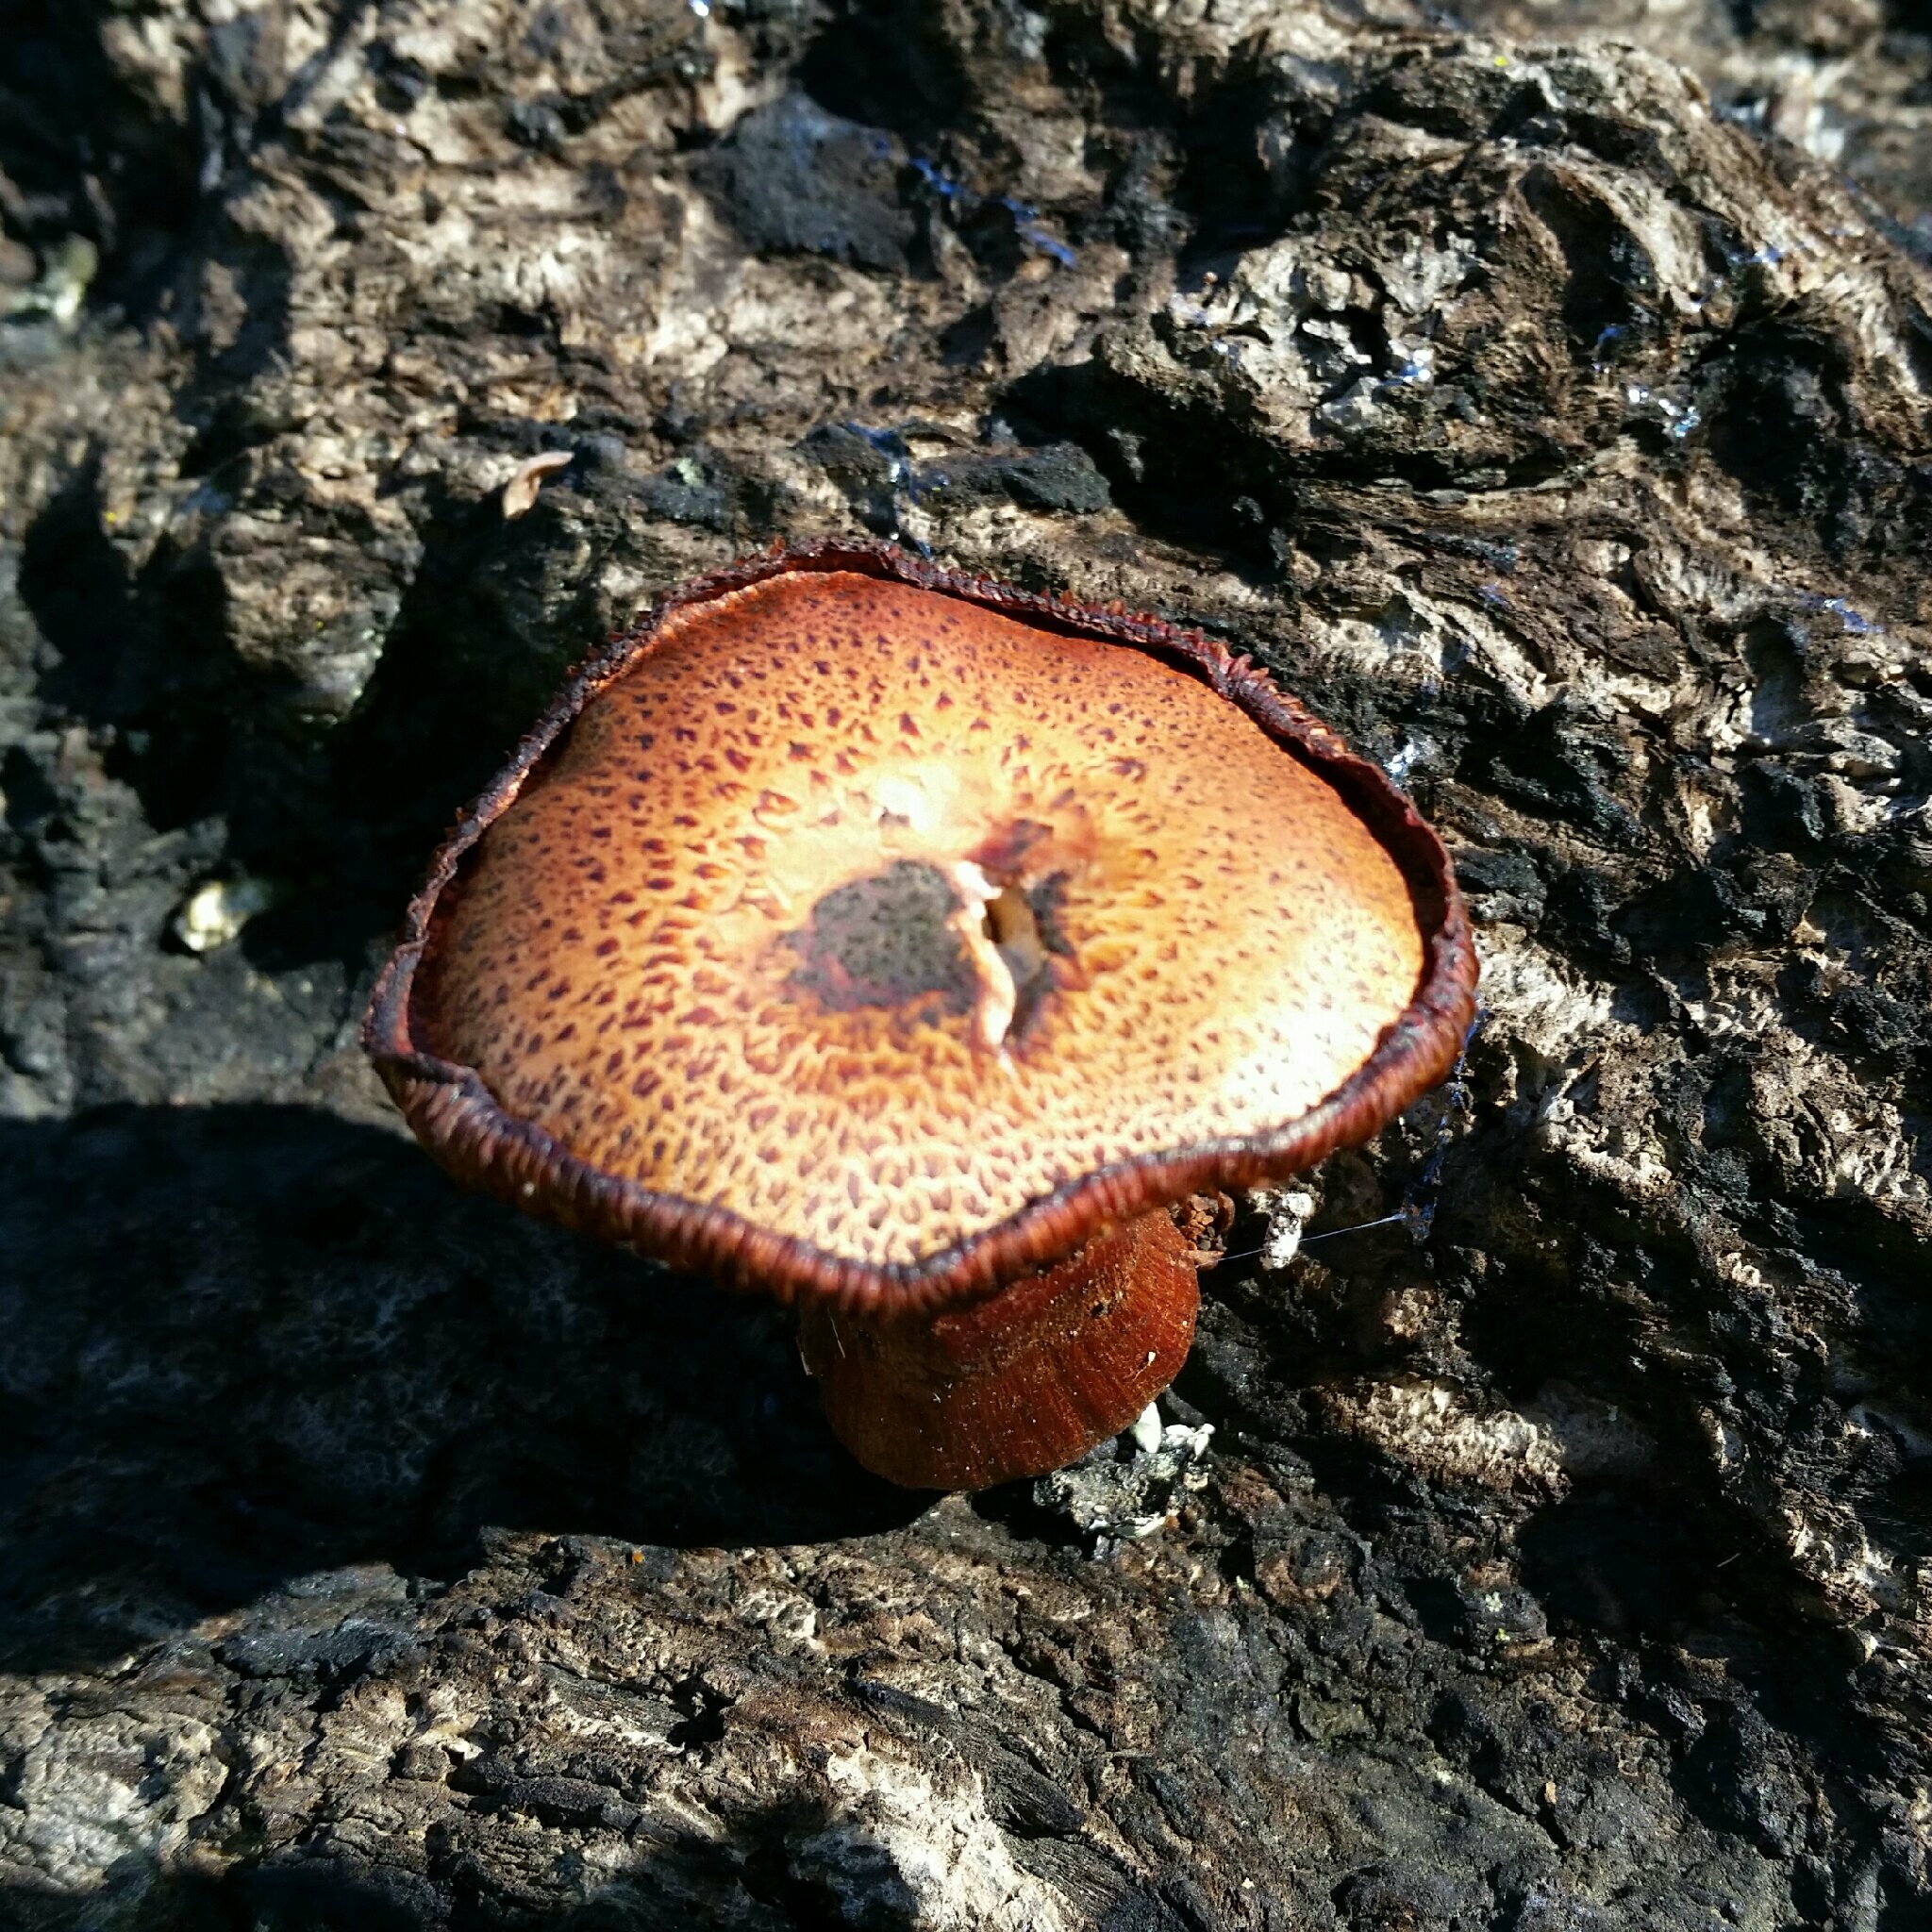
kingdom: Fungi
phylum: Basidiomycota
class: Agaricomycetes
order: Agaricales
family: Hymenogastraceae
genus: Gymnopilus
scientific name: Gymnopilus luteofolius
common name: Yellow-gilled gymnopilus
